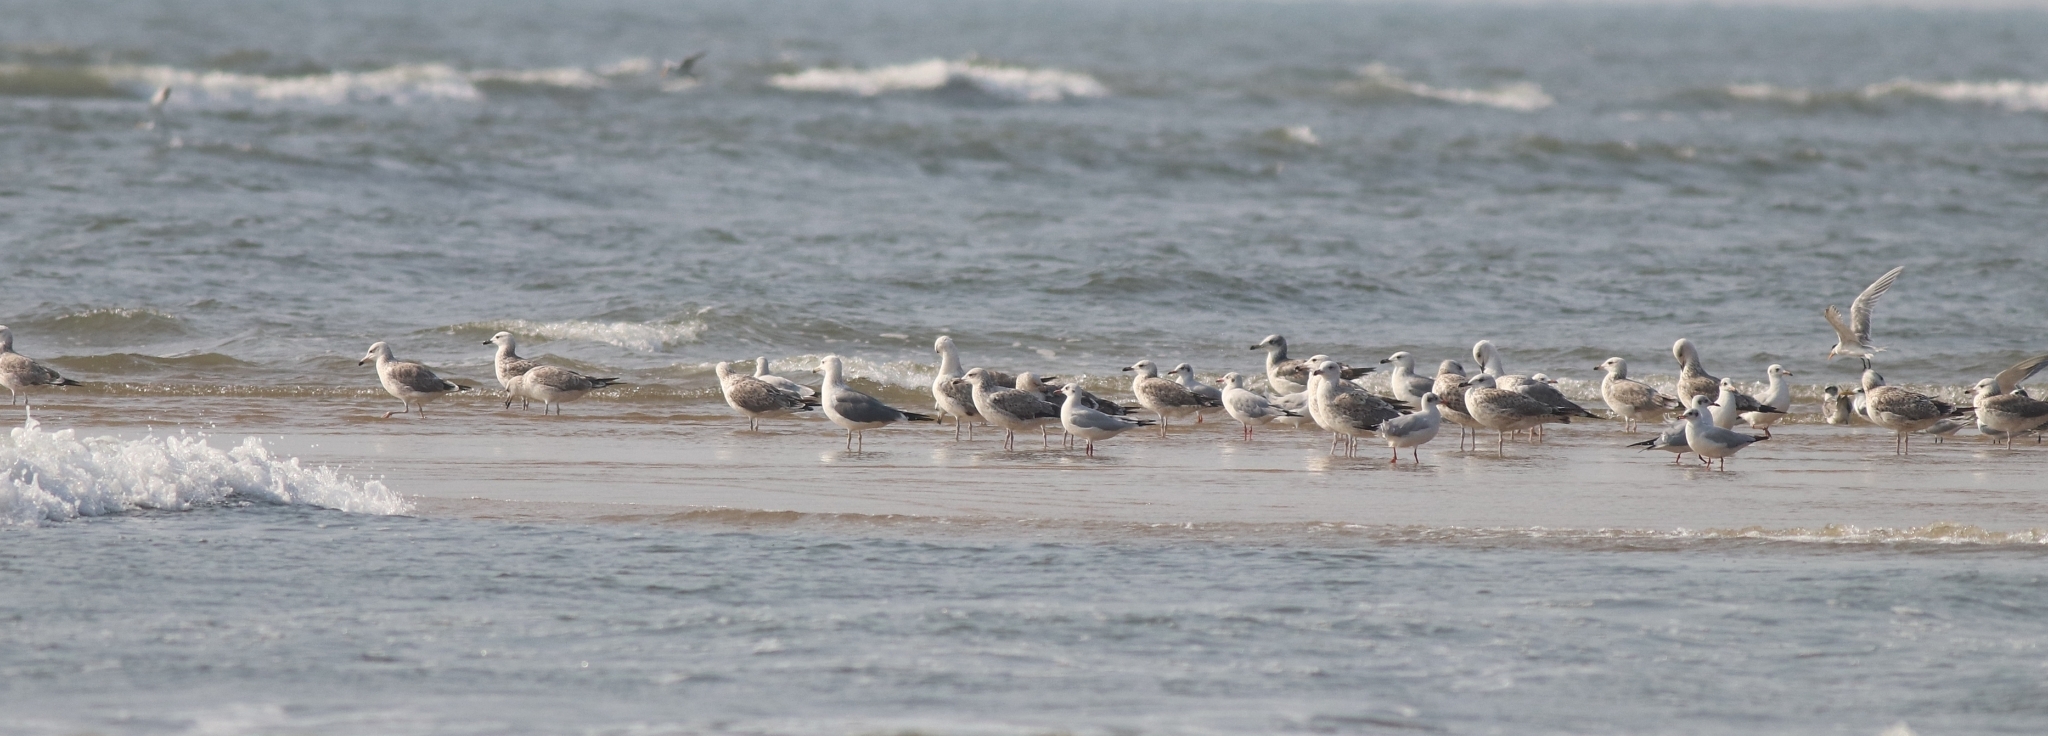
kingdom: Animalia
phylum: Chordata
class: Aves
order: Charadriiformes
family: Laridae
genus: Larus
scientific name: Larus fuscus
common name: Lesser black-backed gull
